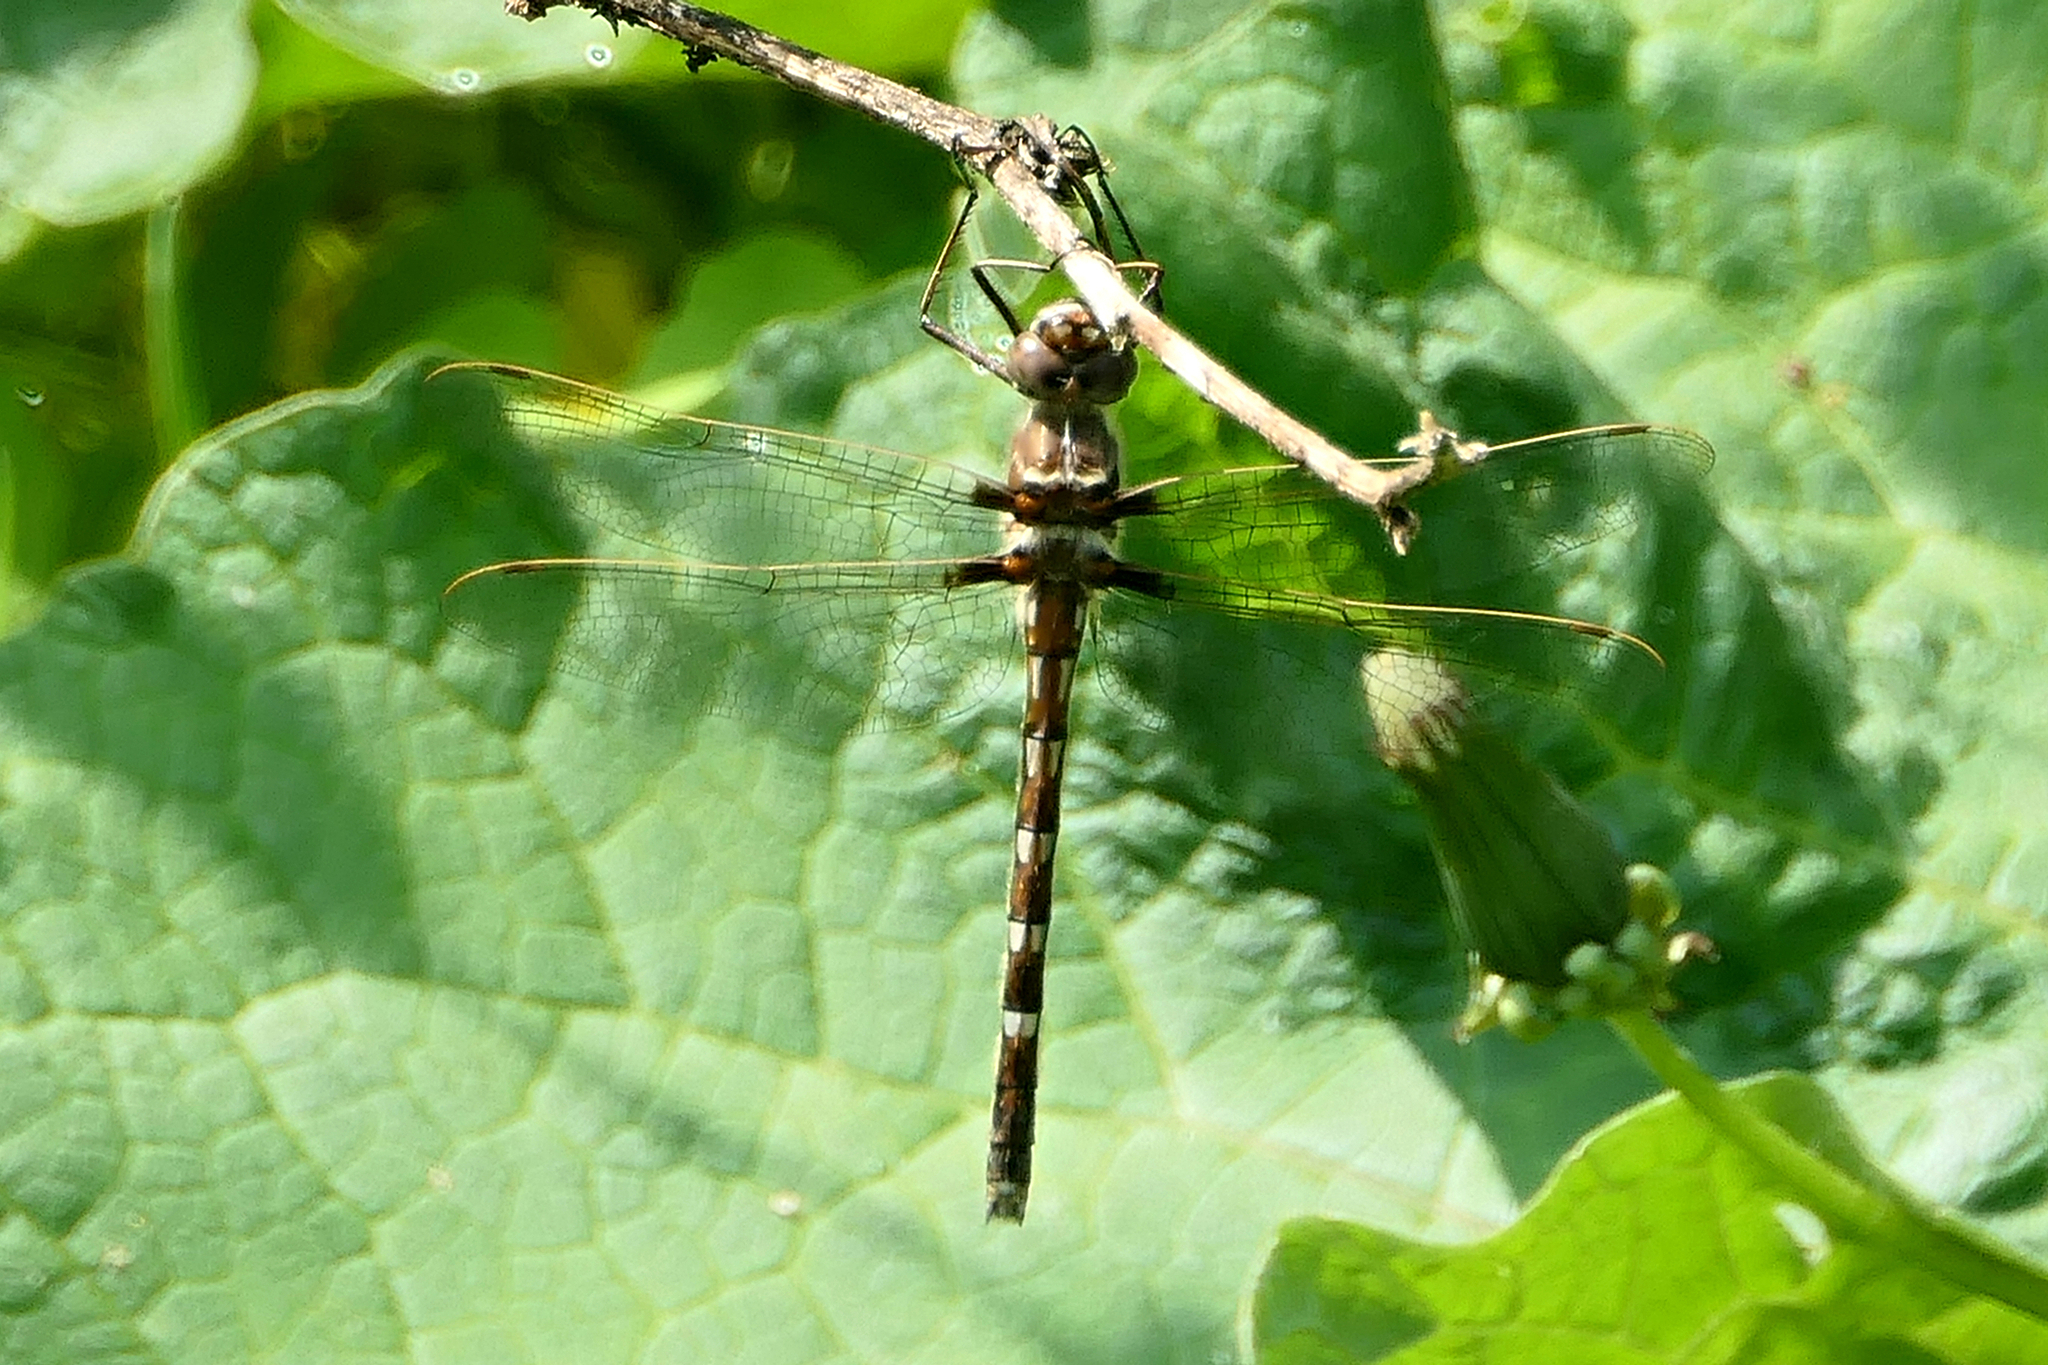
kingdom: Animalia
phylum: Arthropoda
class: Insecta
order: Odonata
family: Macromiidae
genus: Didymops
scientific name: Didymops transversa
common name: Stream cruiser
